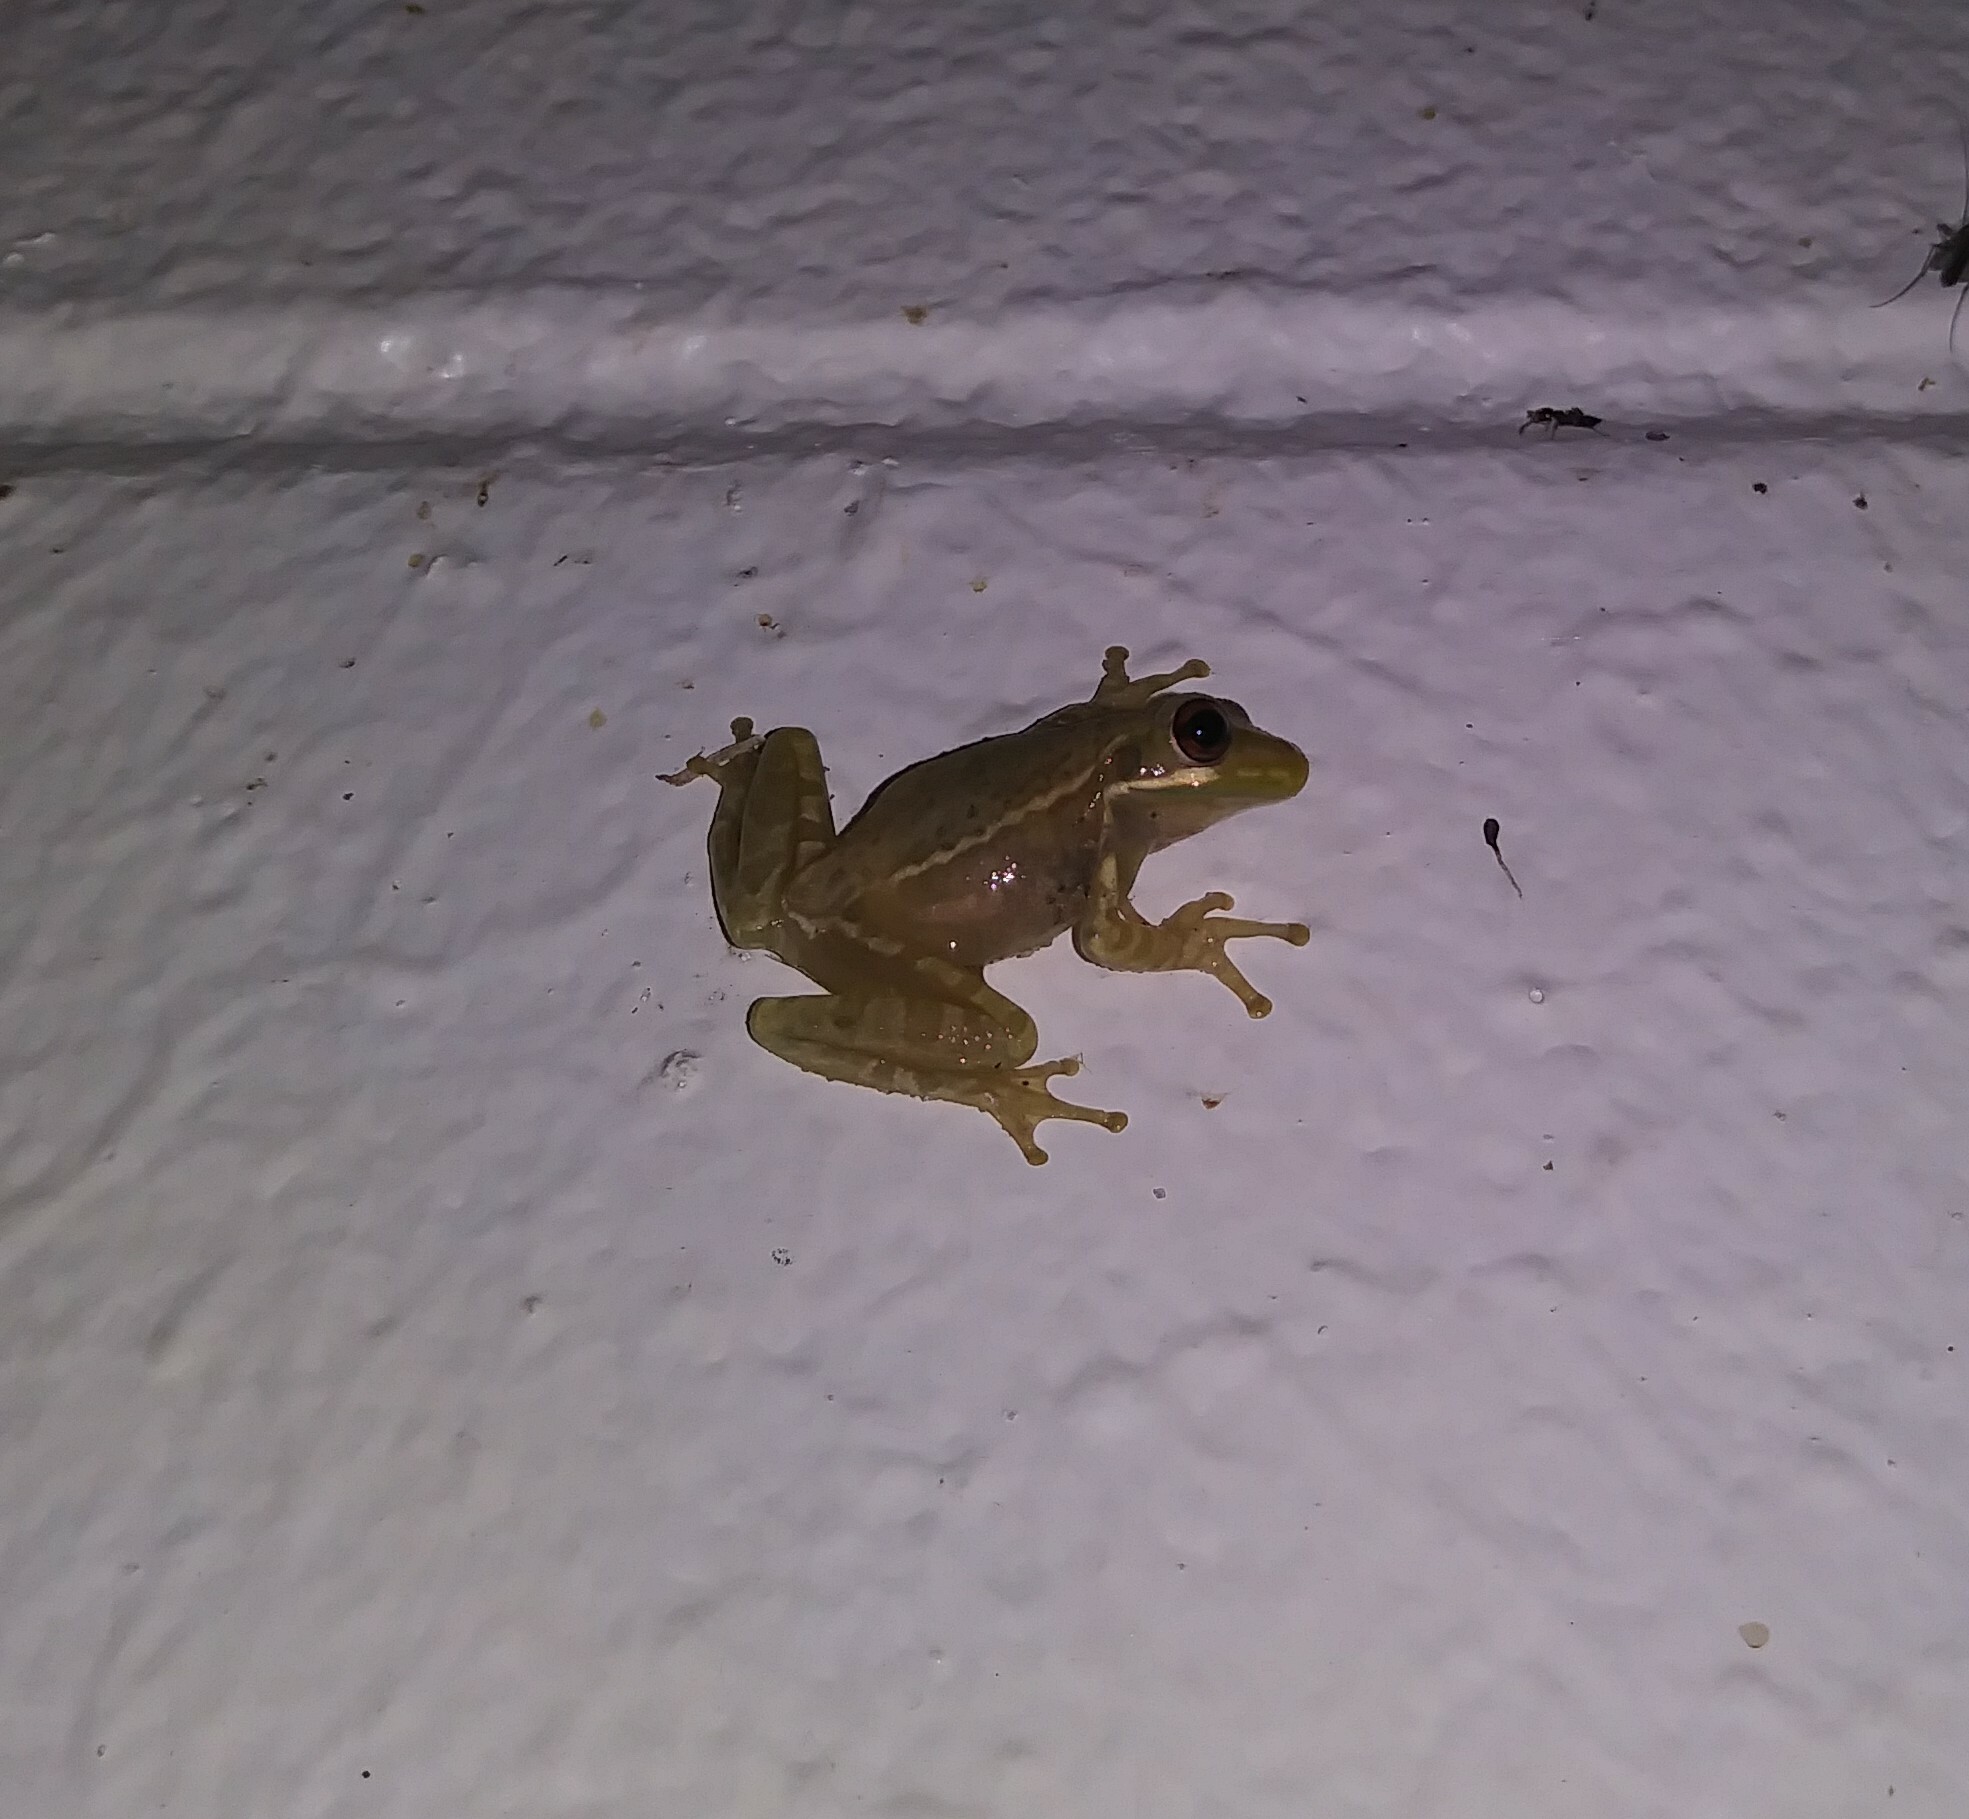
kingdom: Animalia
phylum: Chordata
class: Amphibia
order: Anura
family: Hylidae
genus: Osteopilus
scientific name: Osteopilus septentrionalis
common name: Cuban treefrog
